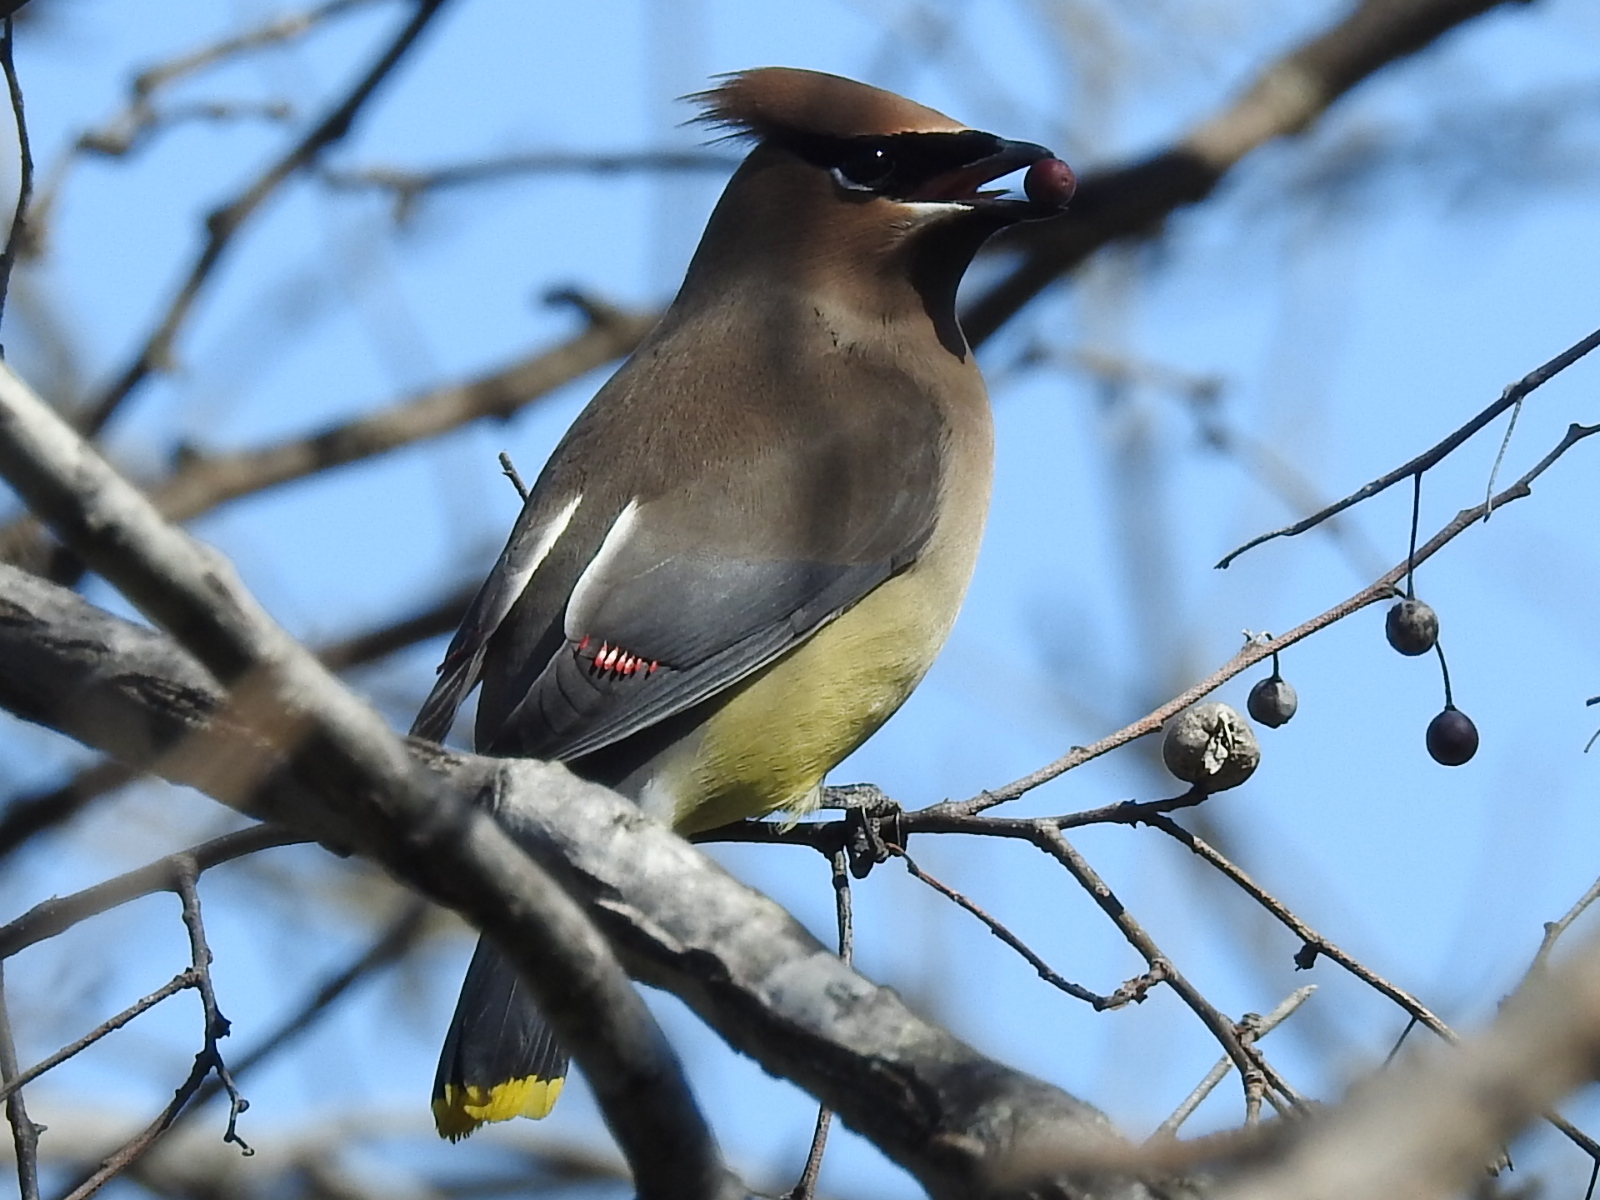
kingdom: Animalia
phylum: Chordata
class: Aves
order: Passeriformes
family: Bombycillidae
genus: Bombycilla
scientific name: Bombycilla cedrorum
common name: Cedar waxwing
